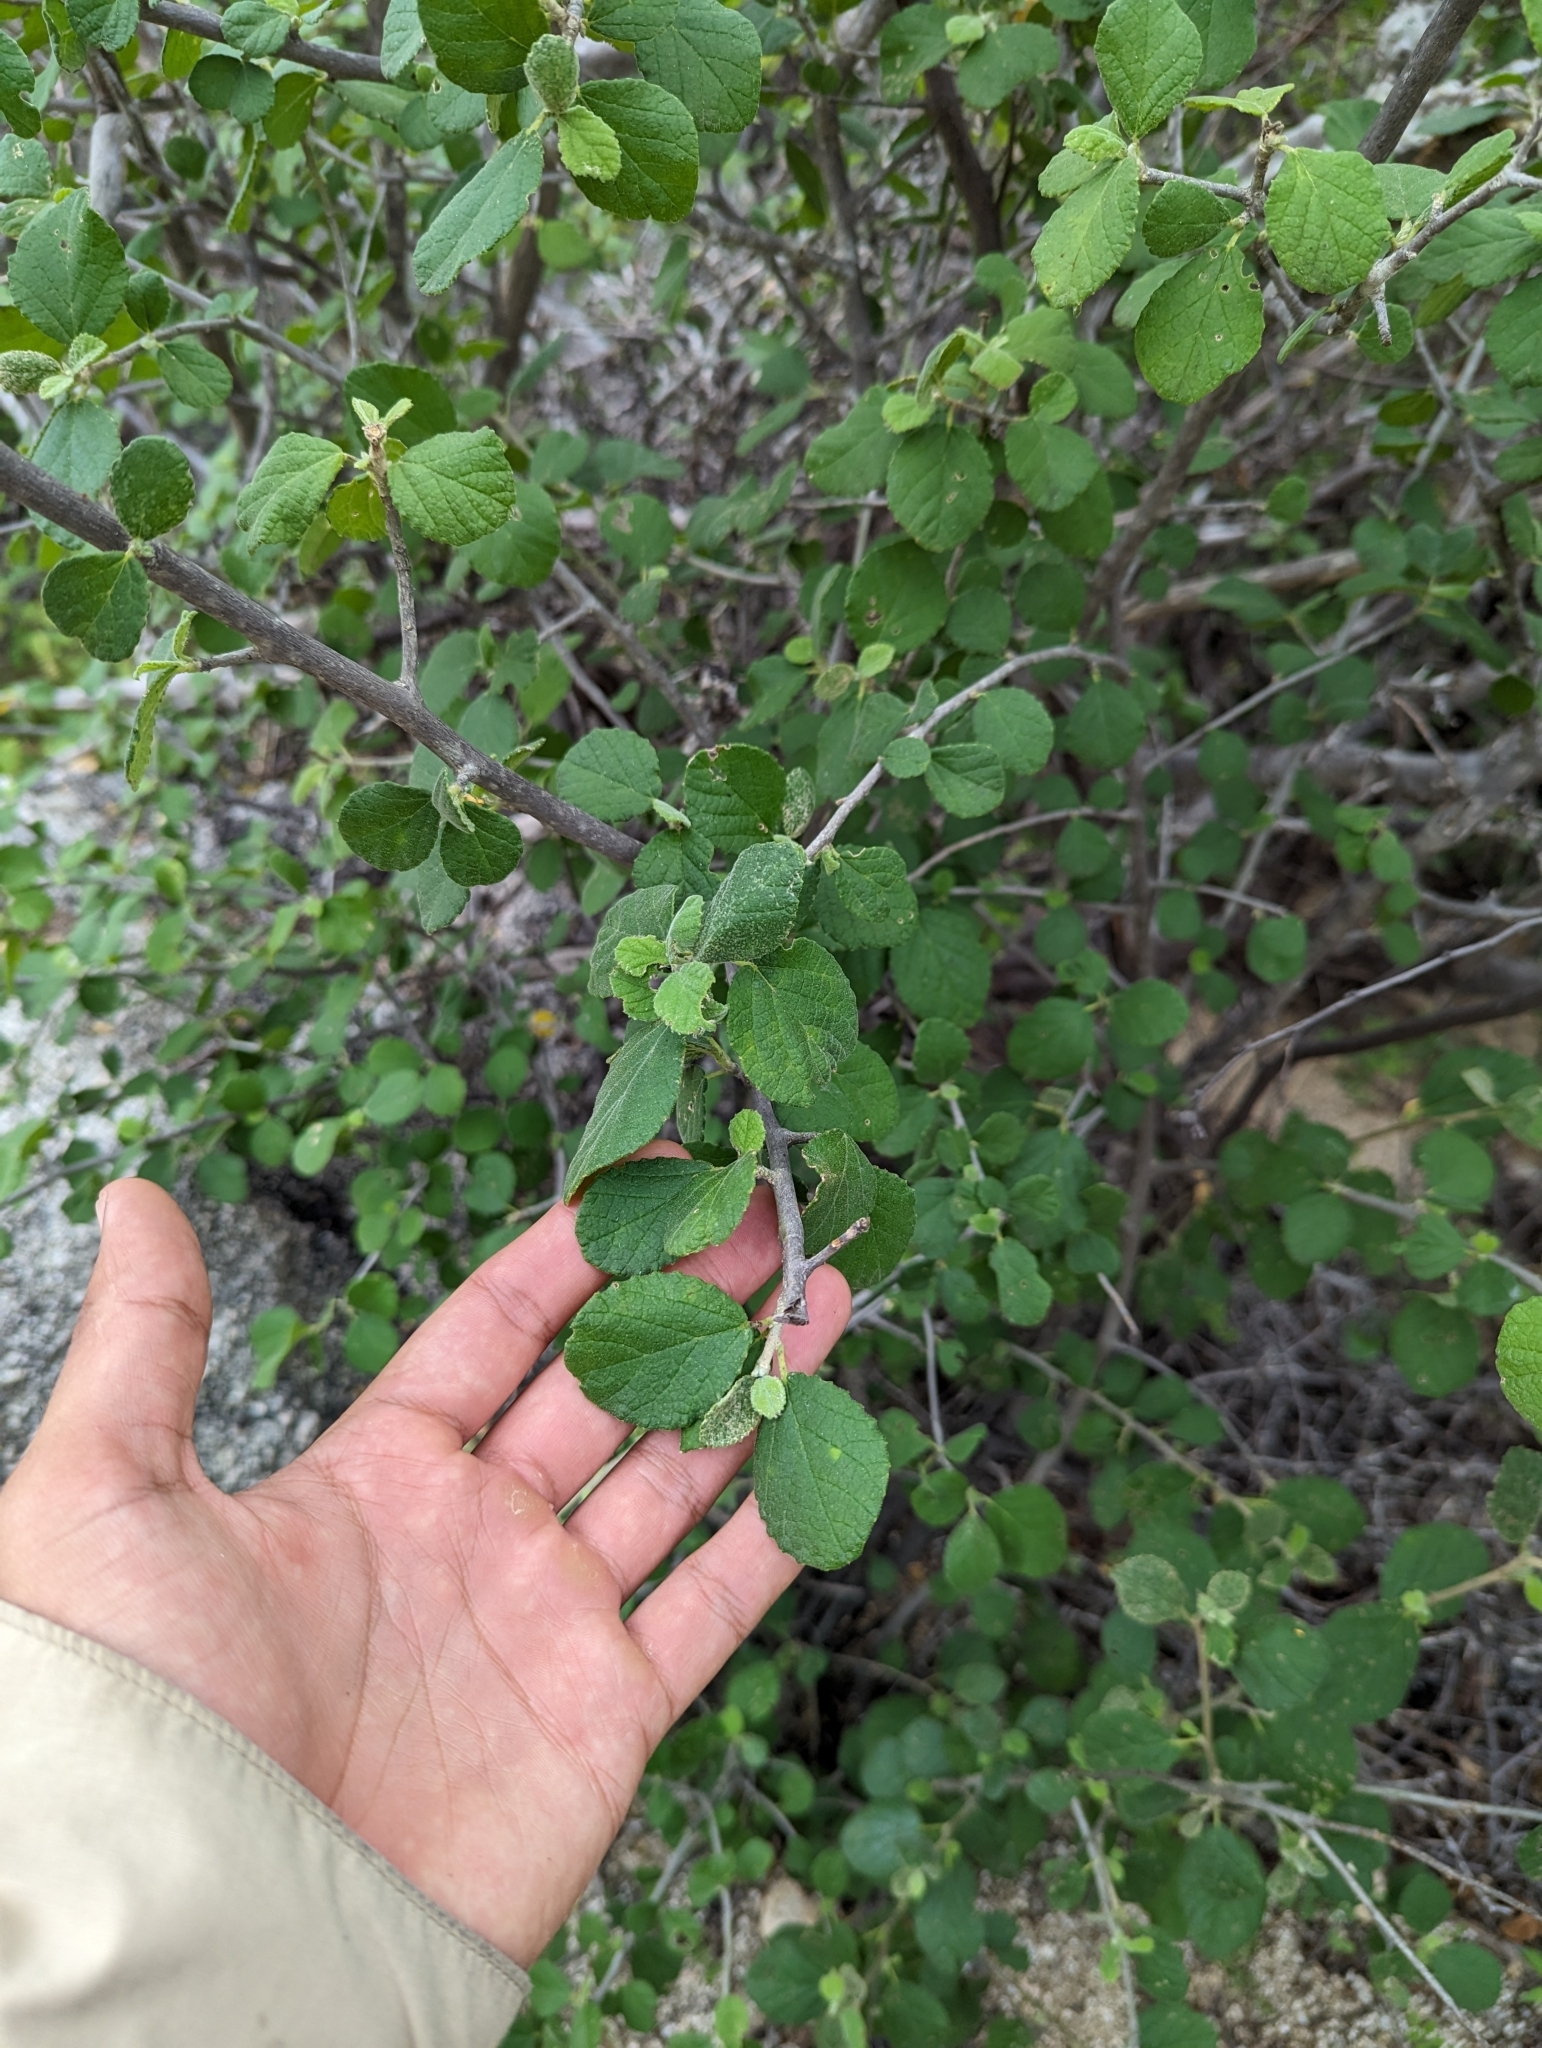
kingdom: Plantae
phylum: Tracheophyta
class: Magnoliopsida
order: Malpighiales
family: Euphorbiaceae
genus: Bernardia
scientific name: Bernardia viridis
